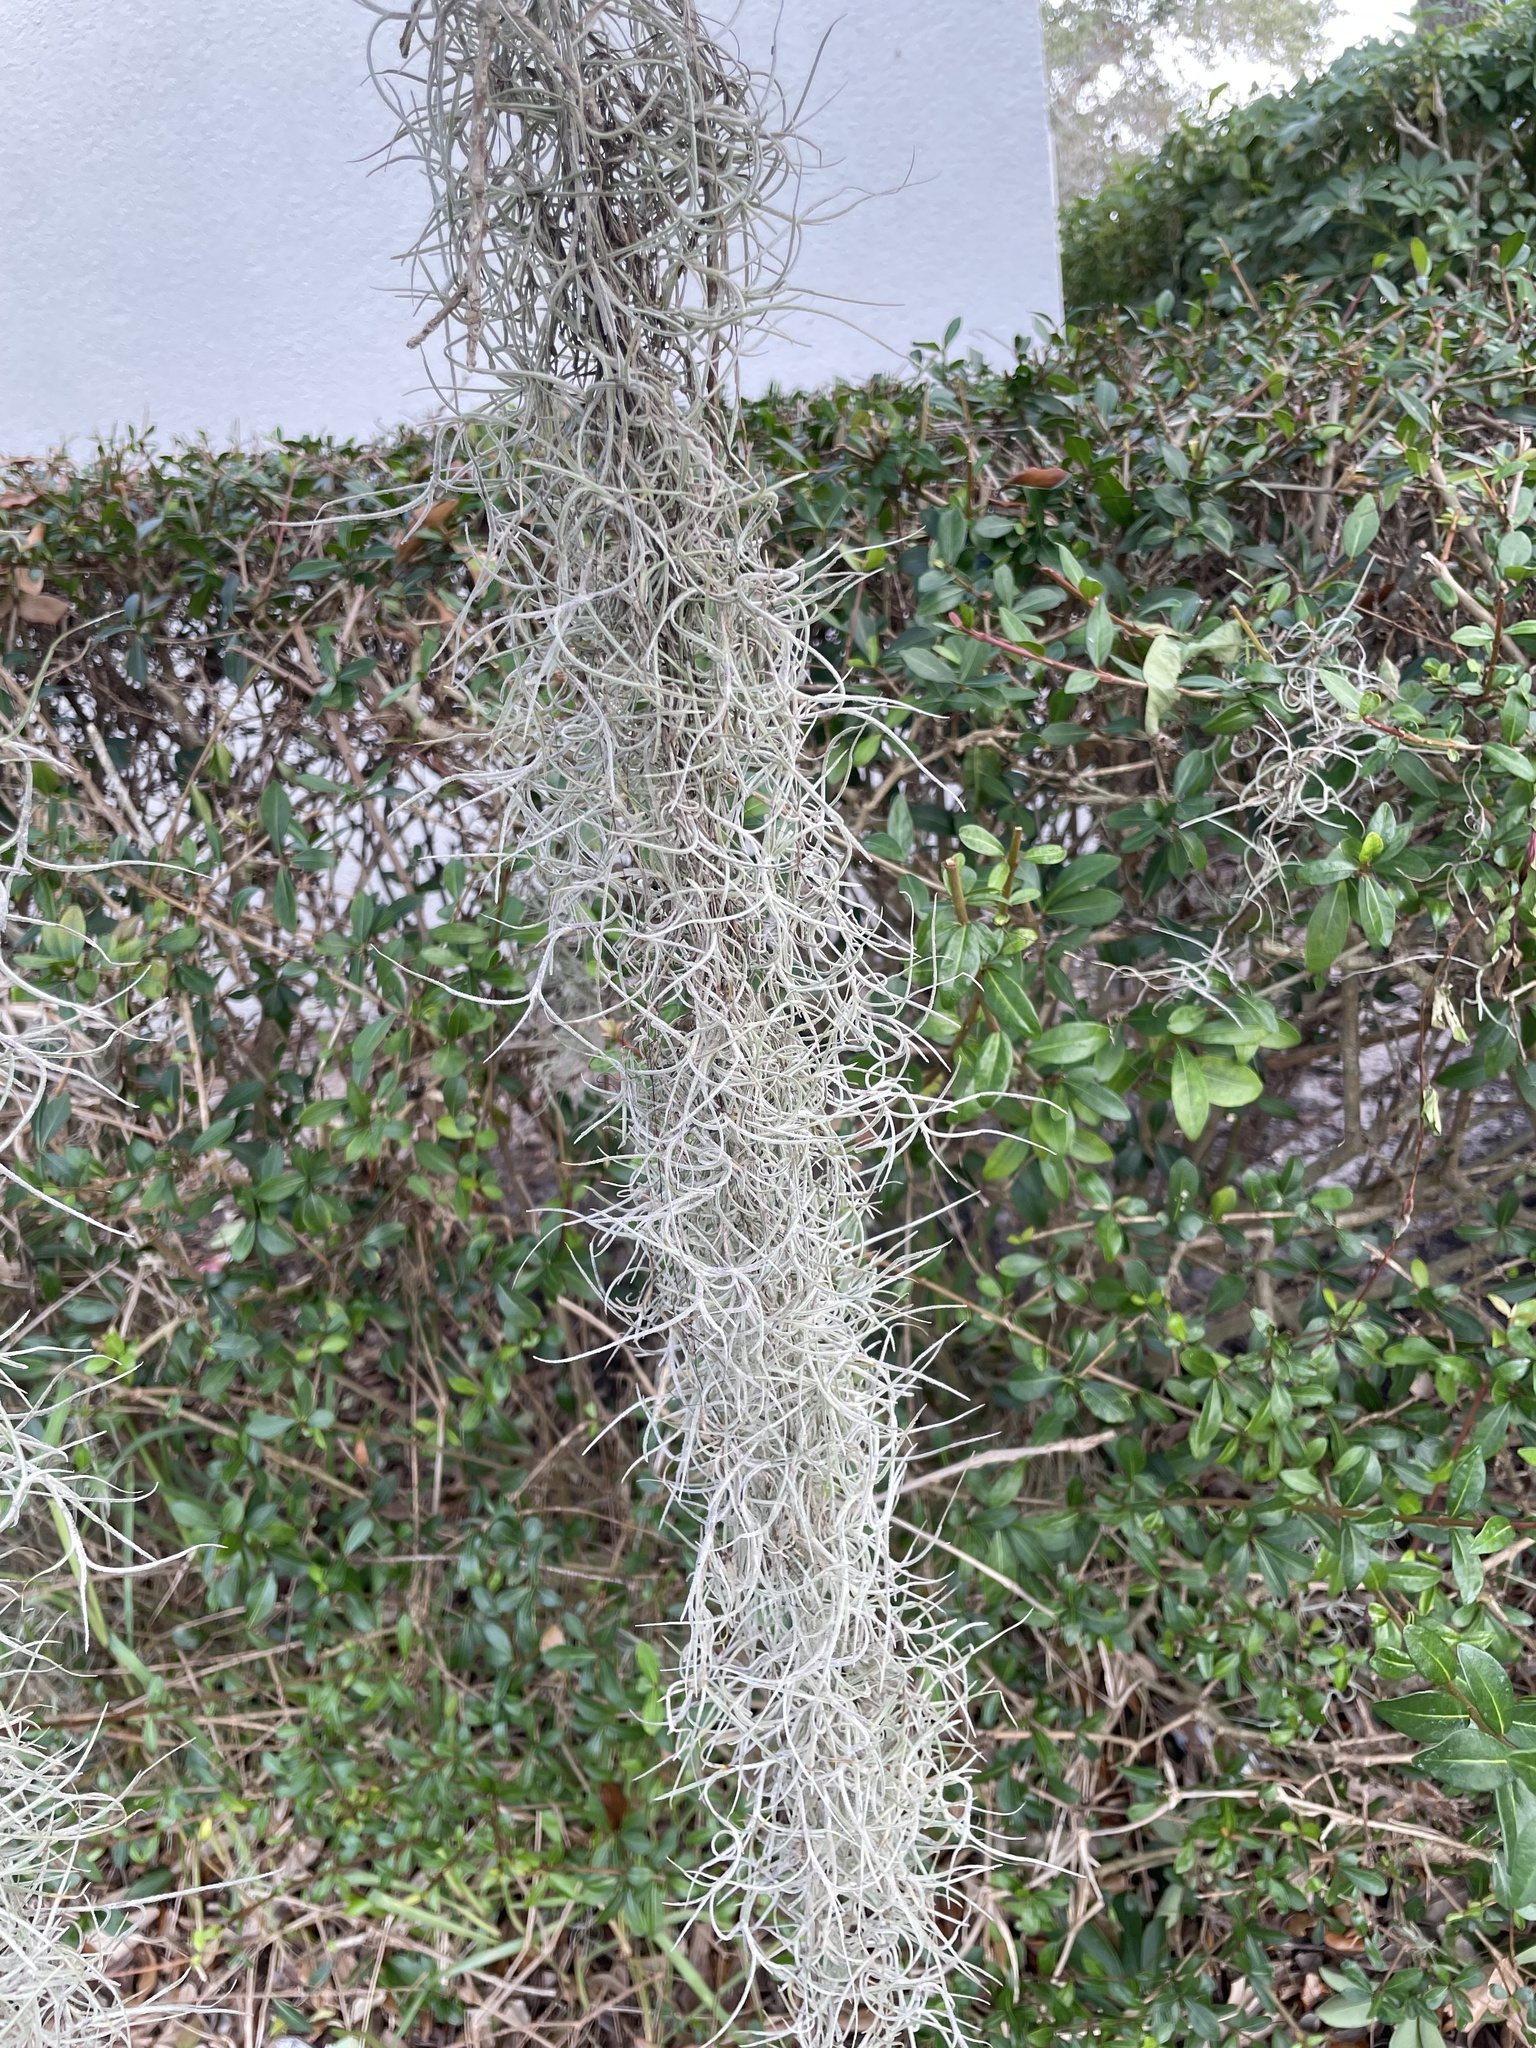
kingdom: Plantae
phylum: Tracheophyta
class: Liliopsida
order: Poales
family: Bromeliaceae
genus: Tillandsia
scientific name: Tillandsia usneoides
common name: Spanish moss
